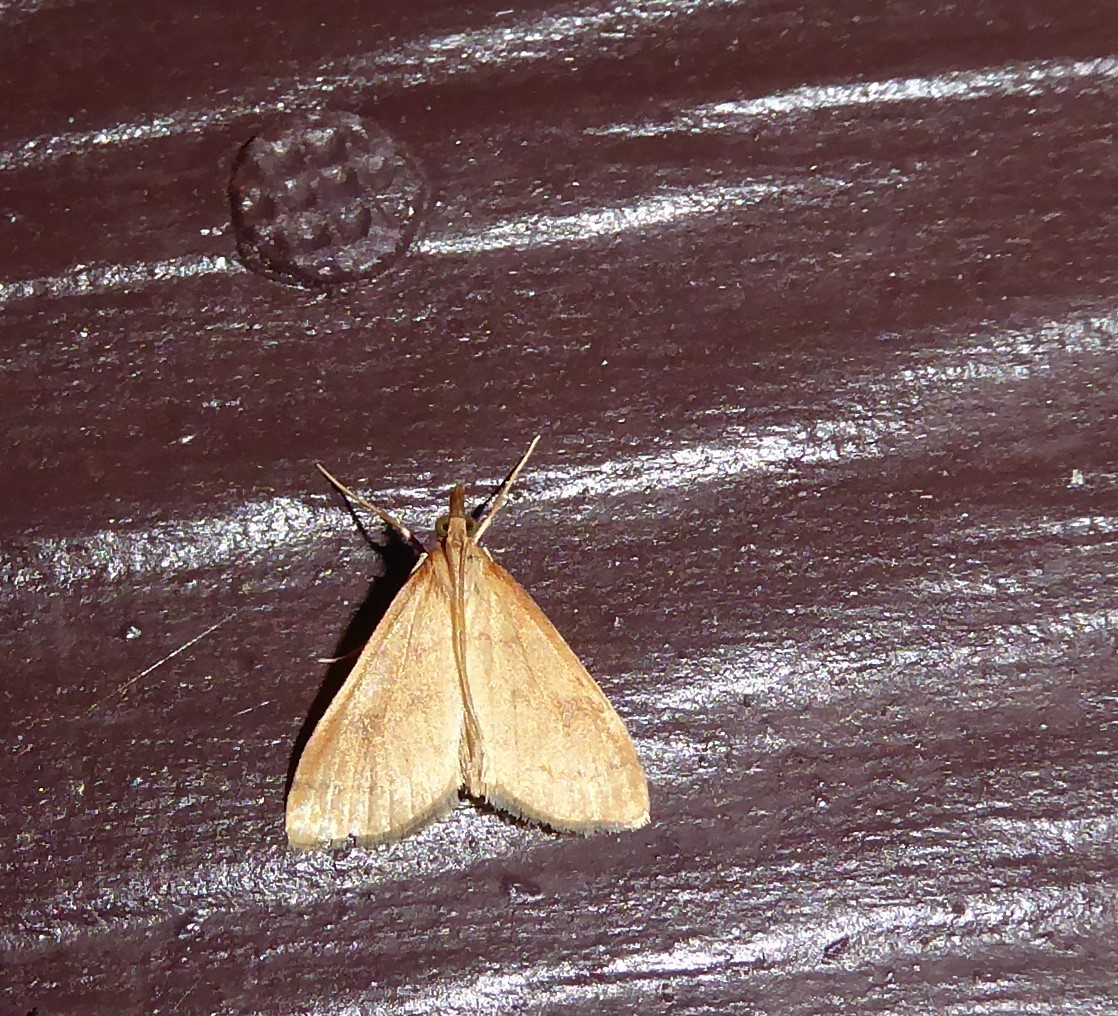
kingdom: Animalia
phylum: Arthropoda
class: Insecta
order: Lepidoptera
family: Crambidae
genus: Udea
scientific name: Udea Mnesictena flavidalis
